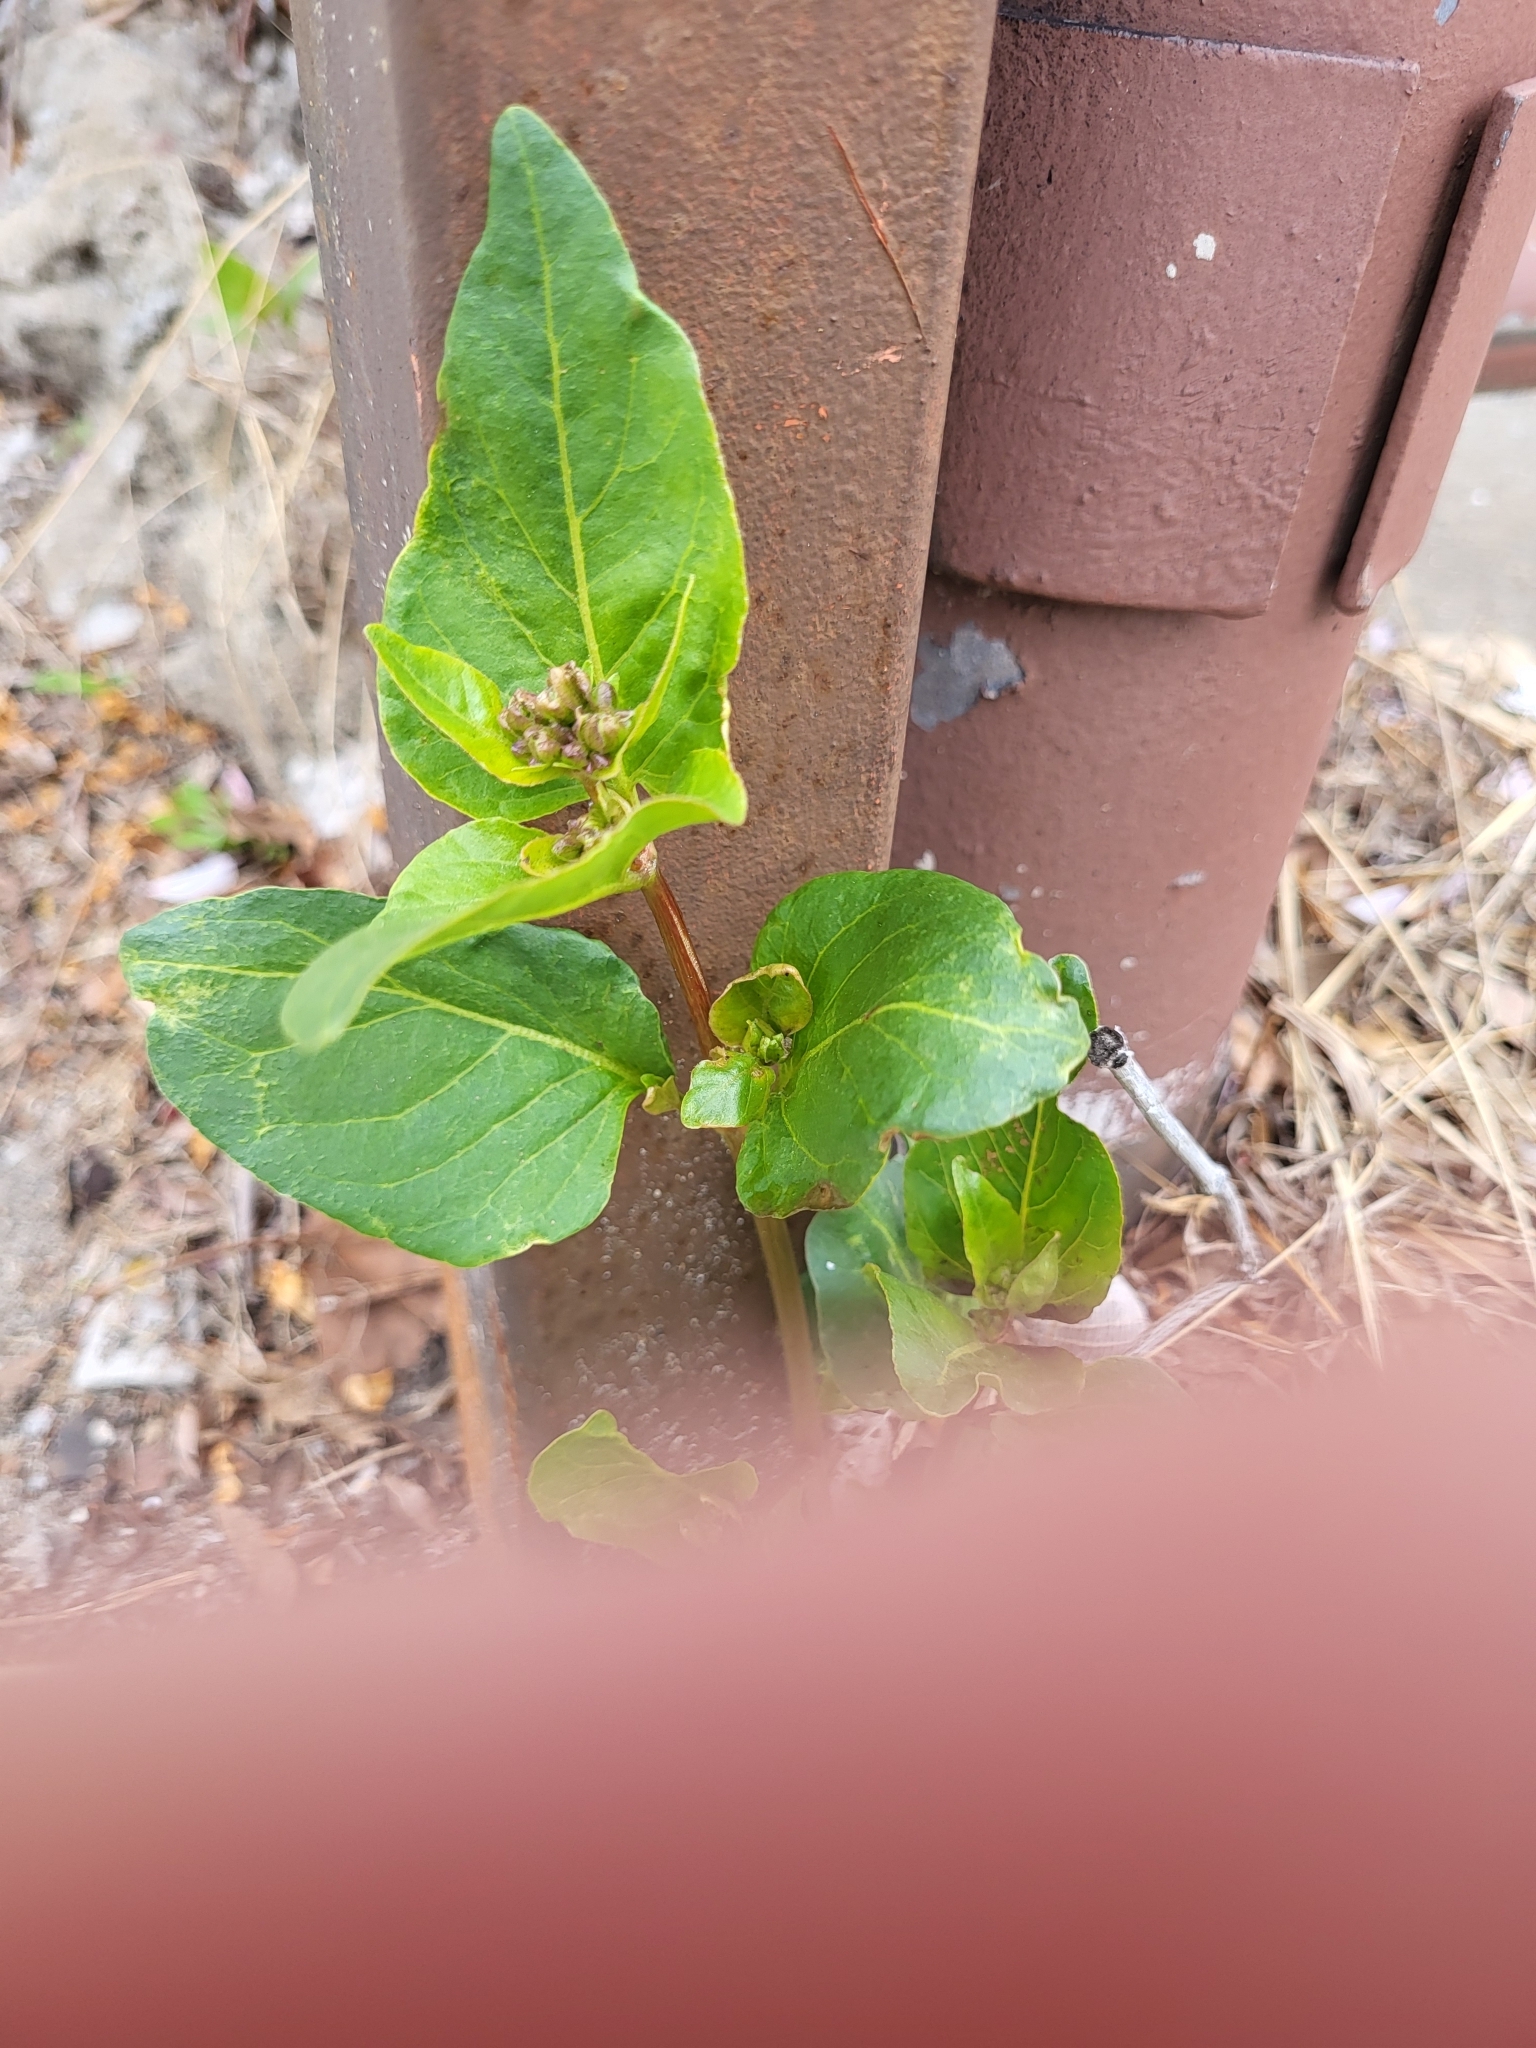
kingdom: Plantae
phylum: Tracheophyta
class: Magnoliopsida
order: Caryophyllales
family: Nyctaginaceae
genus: Mirabilis
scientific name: Mirabilis nyctaginea
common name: Umbrella wort
